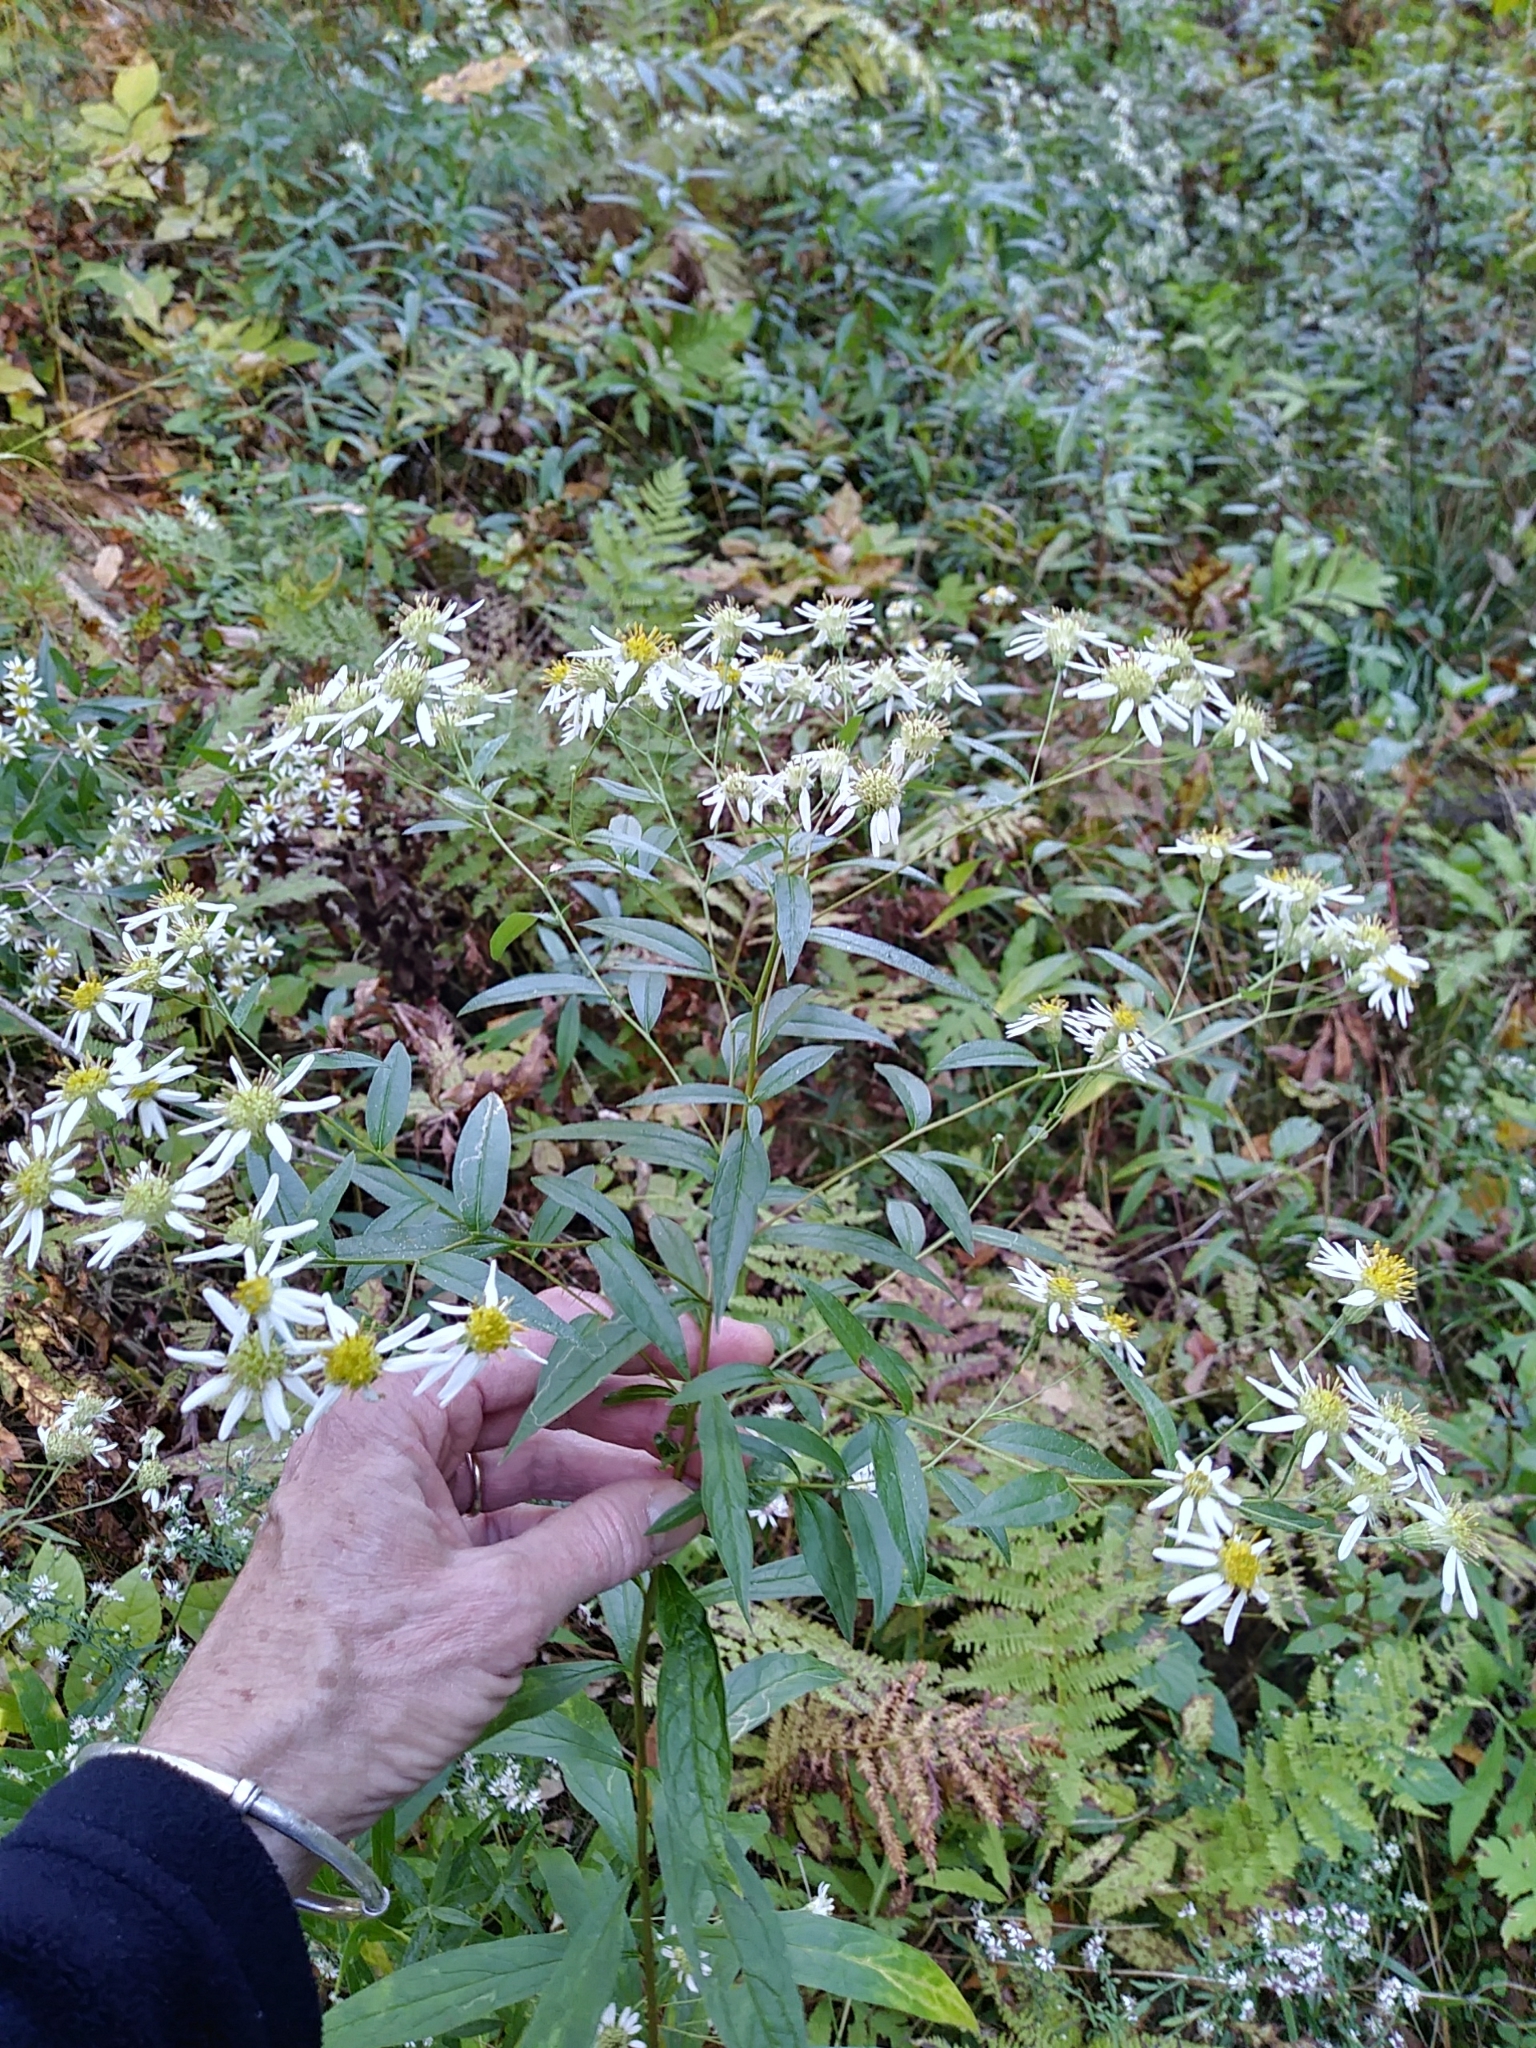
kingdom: Plantae
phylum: Tracheophyta
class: Magnoliopsida
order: Asterales
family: Asteraceae
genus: Doellingeria
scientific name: Doellingeria umbellata
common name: Flat-top white aster
